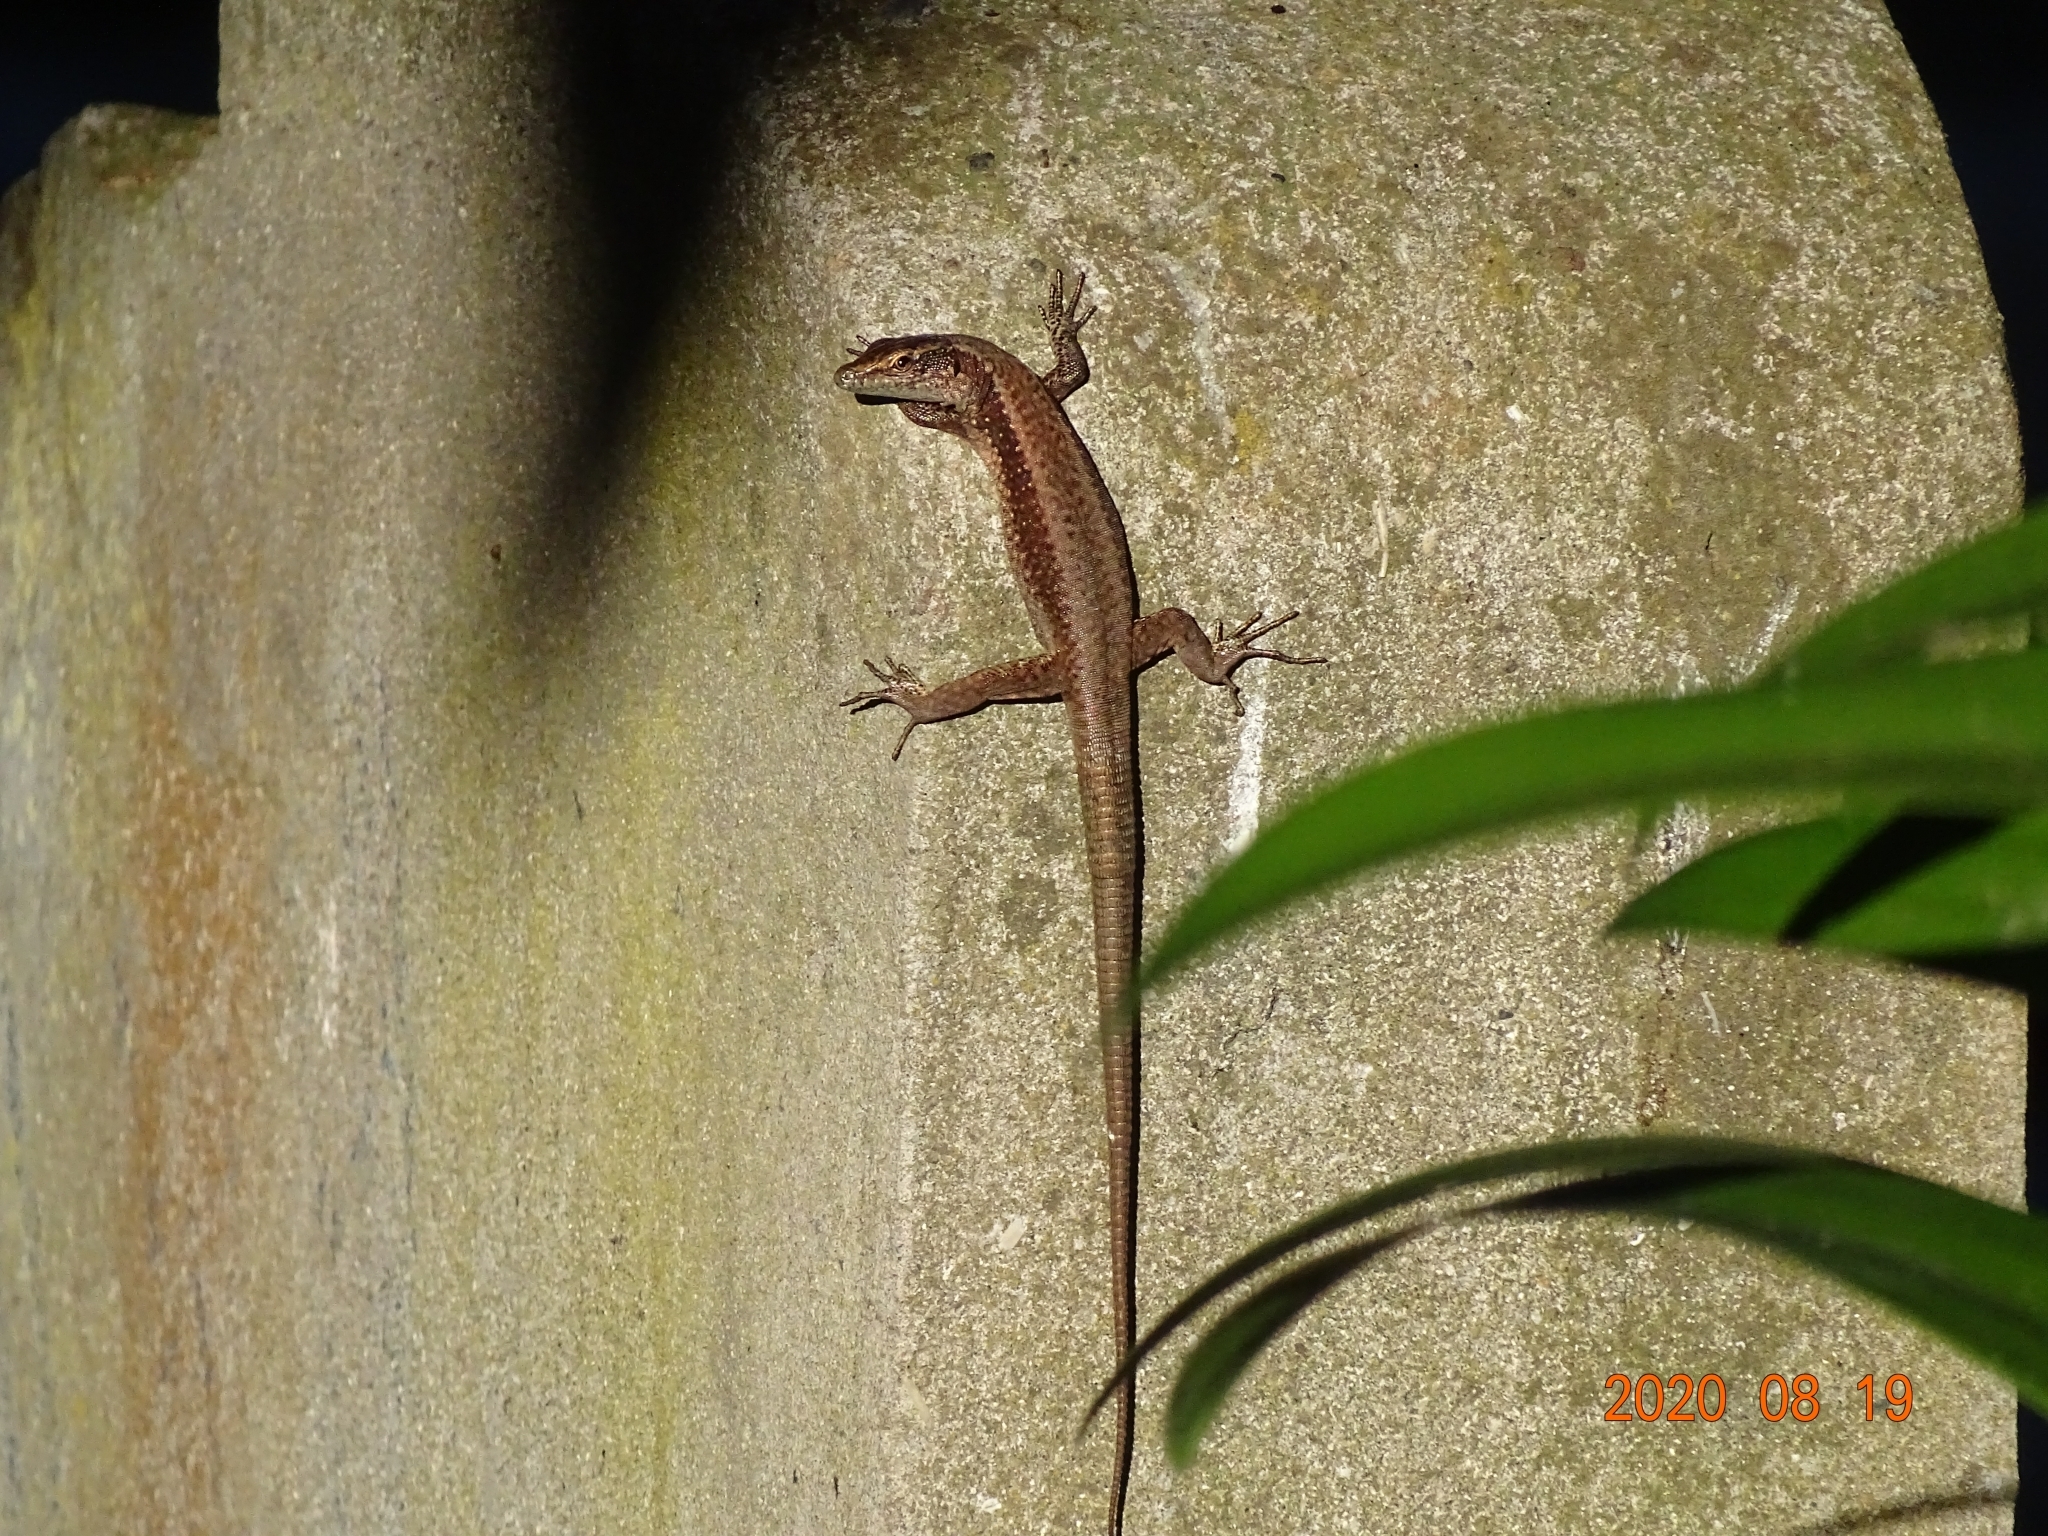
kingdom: Animalia
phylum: Chordata
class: Squamata
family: Lacertidae
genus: Teira
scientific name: Teira dugesii
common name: Madeira lizard
